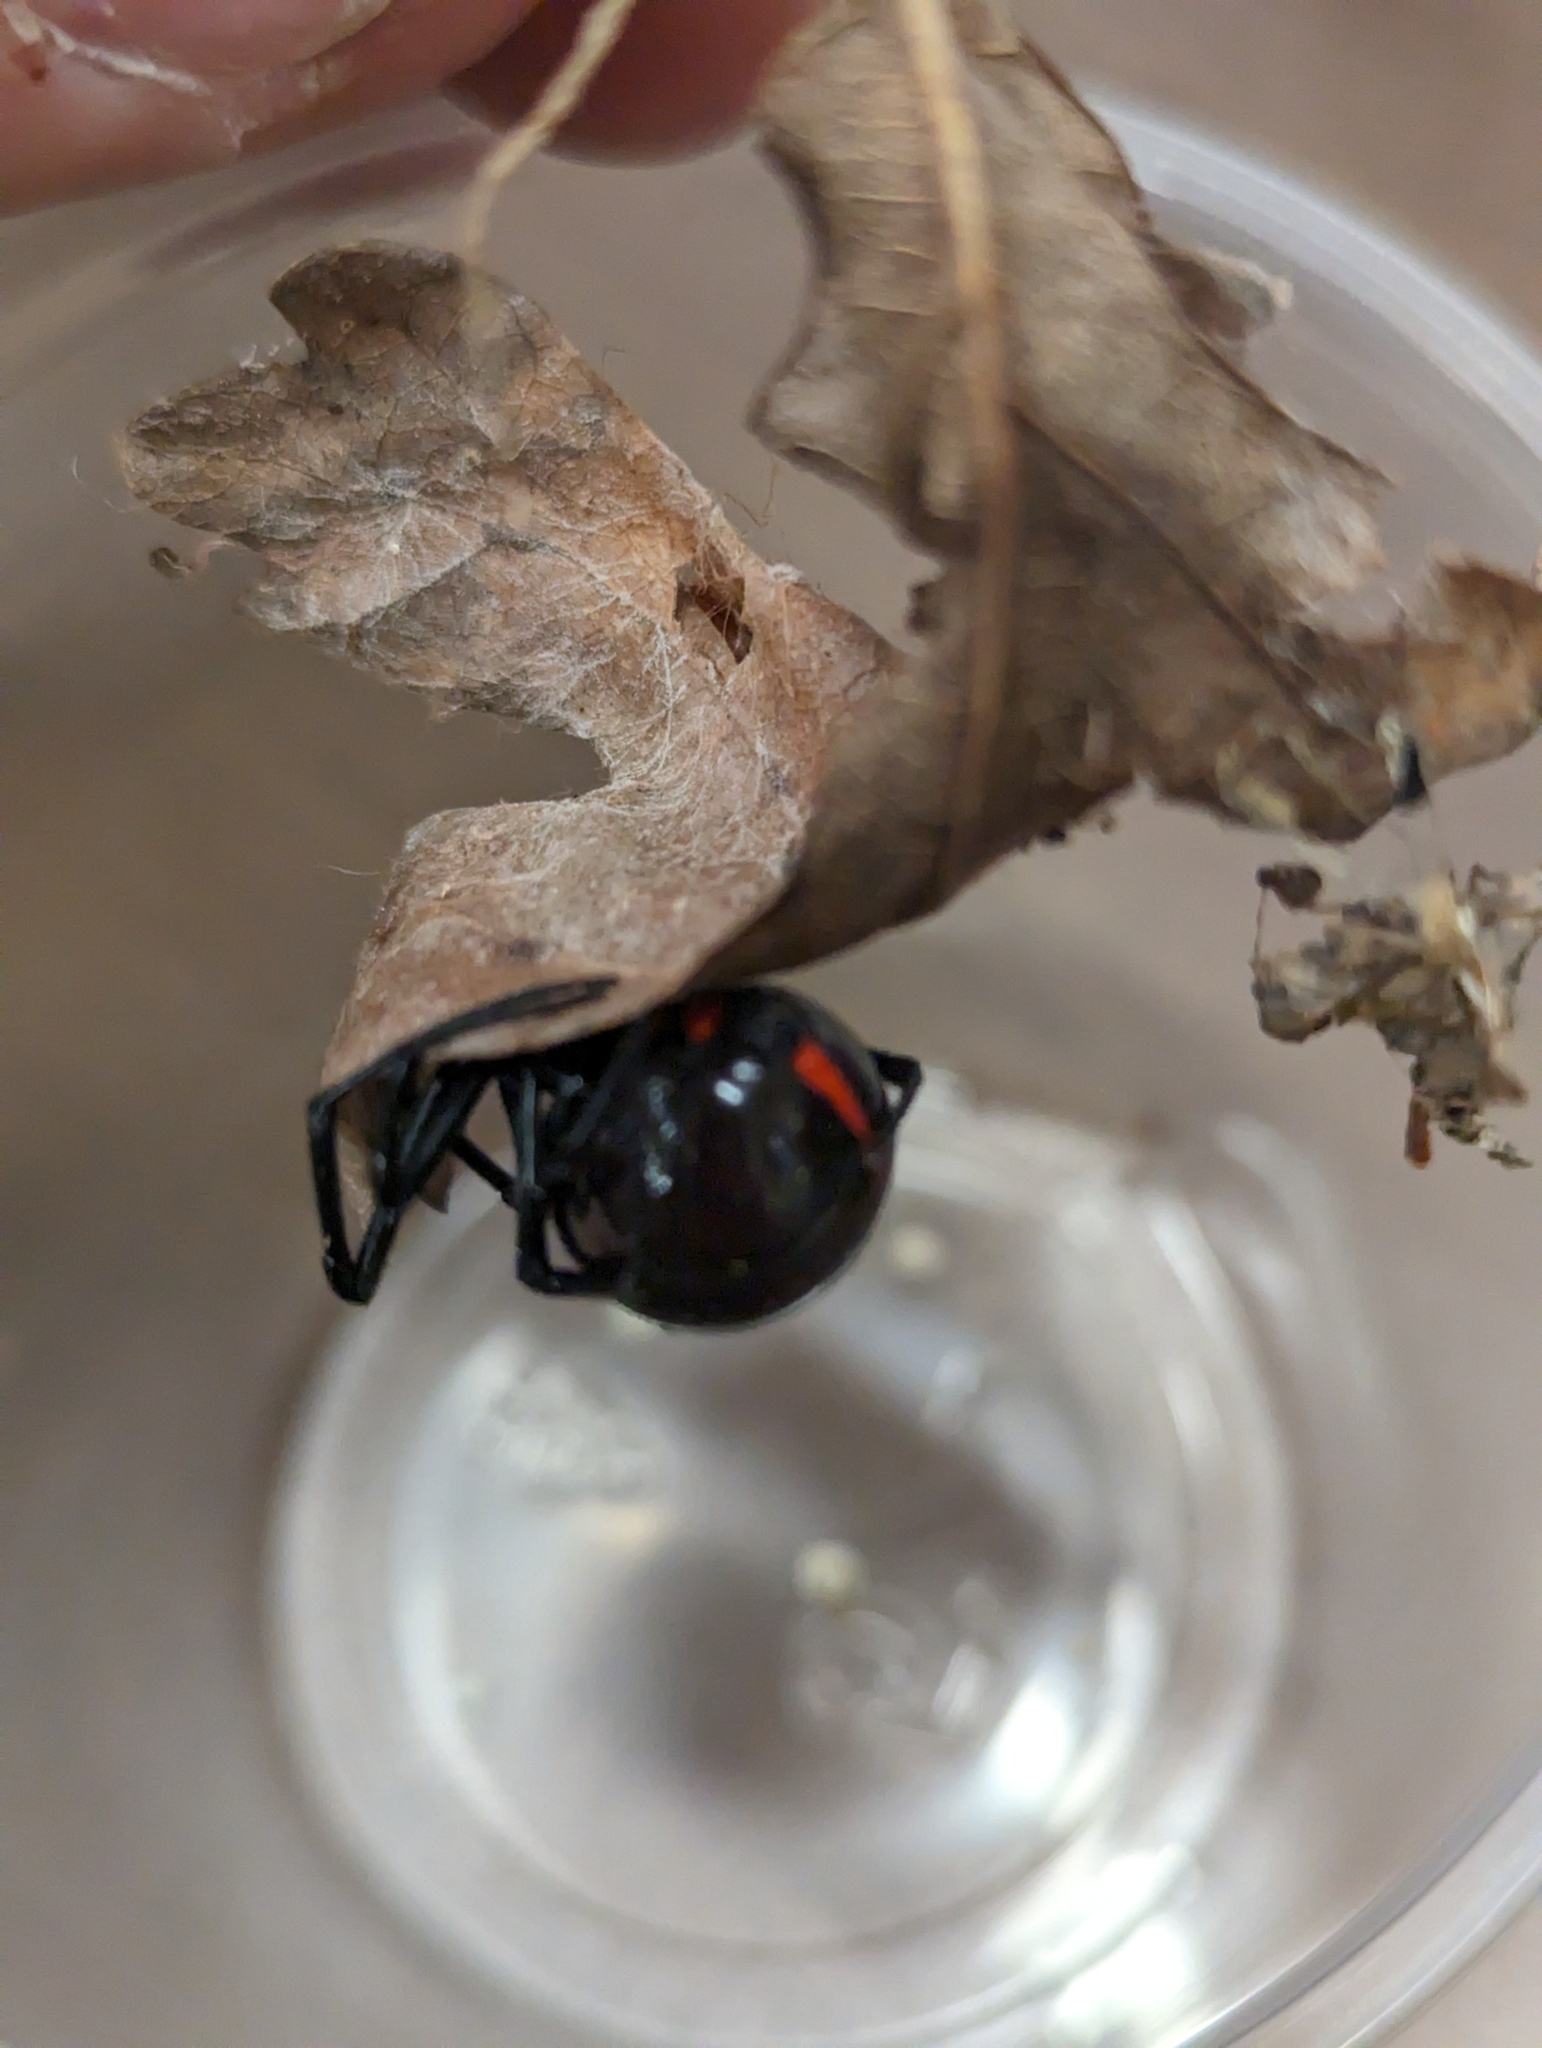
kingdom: Animalia
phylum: Arthropoda
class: Arachnida
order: Araneae
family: Theridiidae
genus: Latrodectus
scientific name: Latrodectus variolus
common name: Northern black widow
